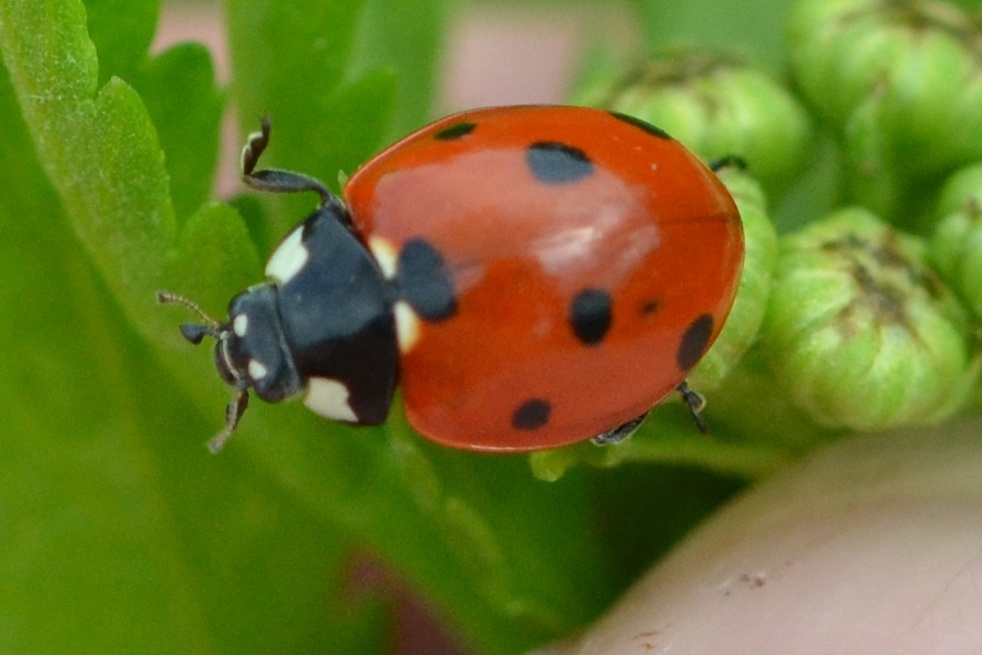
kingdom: Animalia
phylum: Arthropoda
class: Insecta
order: Coleoptera
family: Coccinellidae
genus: Coccinella
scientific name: Coccinella septempunctata
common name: Sevenspotted lady beetle
